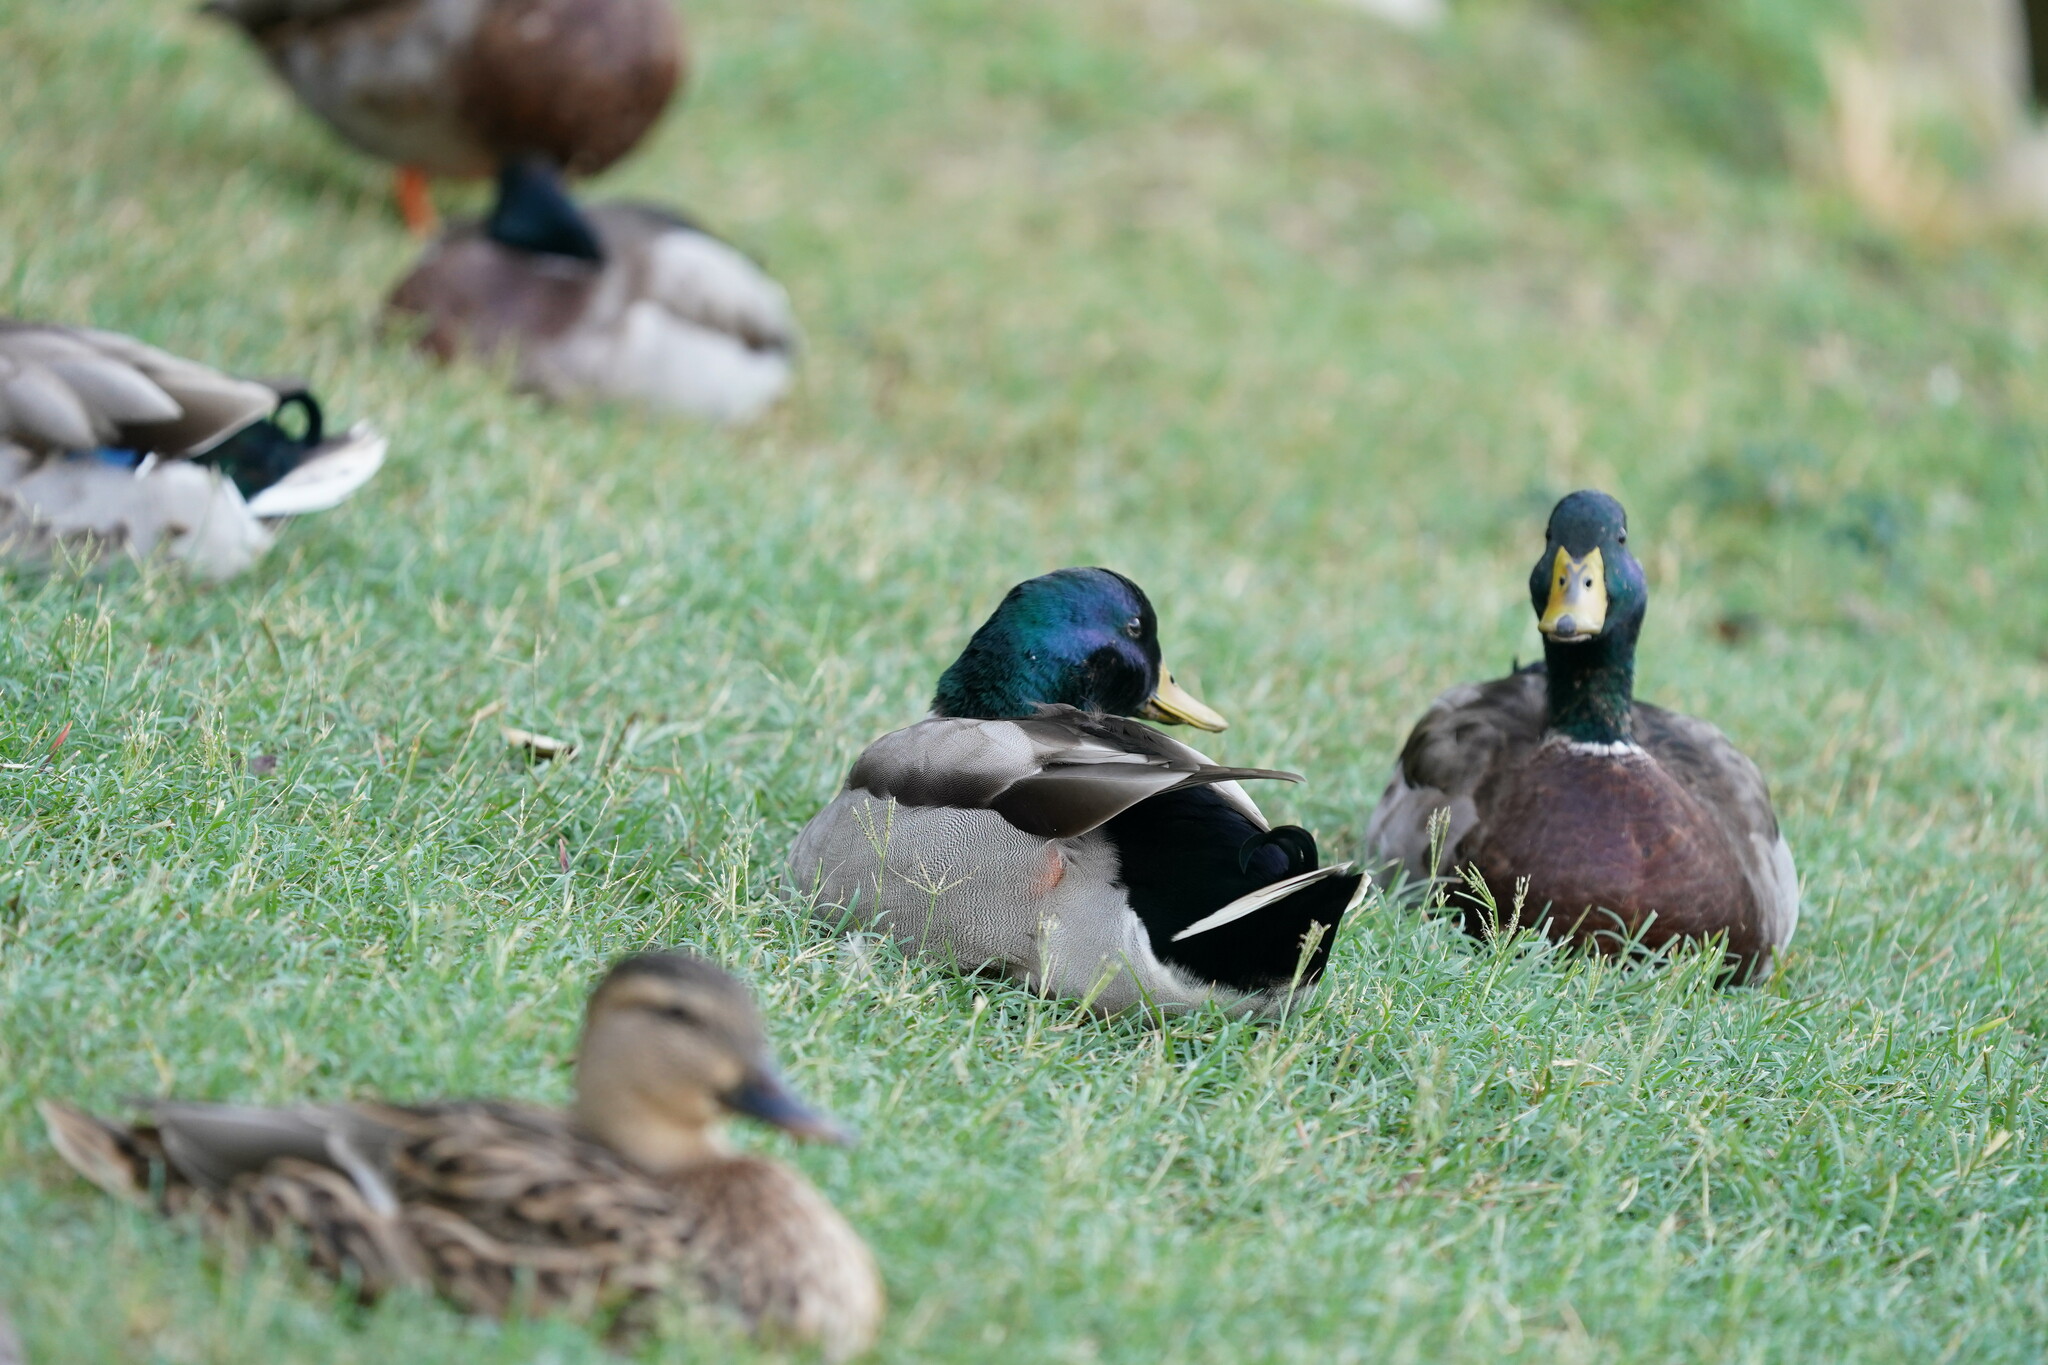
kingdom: Animalia
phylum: Chordata
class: Aves
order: Anseriformes
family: Anatidae
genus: Anas
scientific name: Anas platyrhynchos
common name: Mallard
